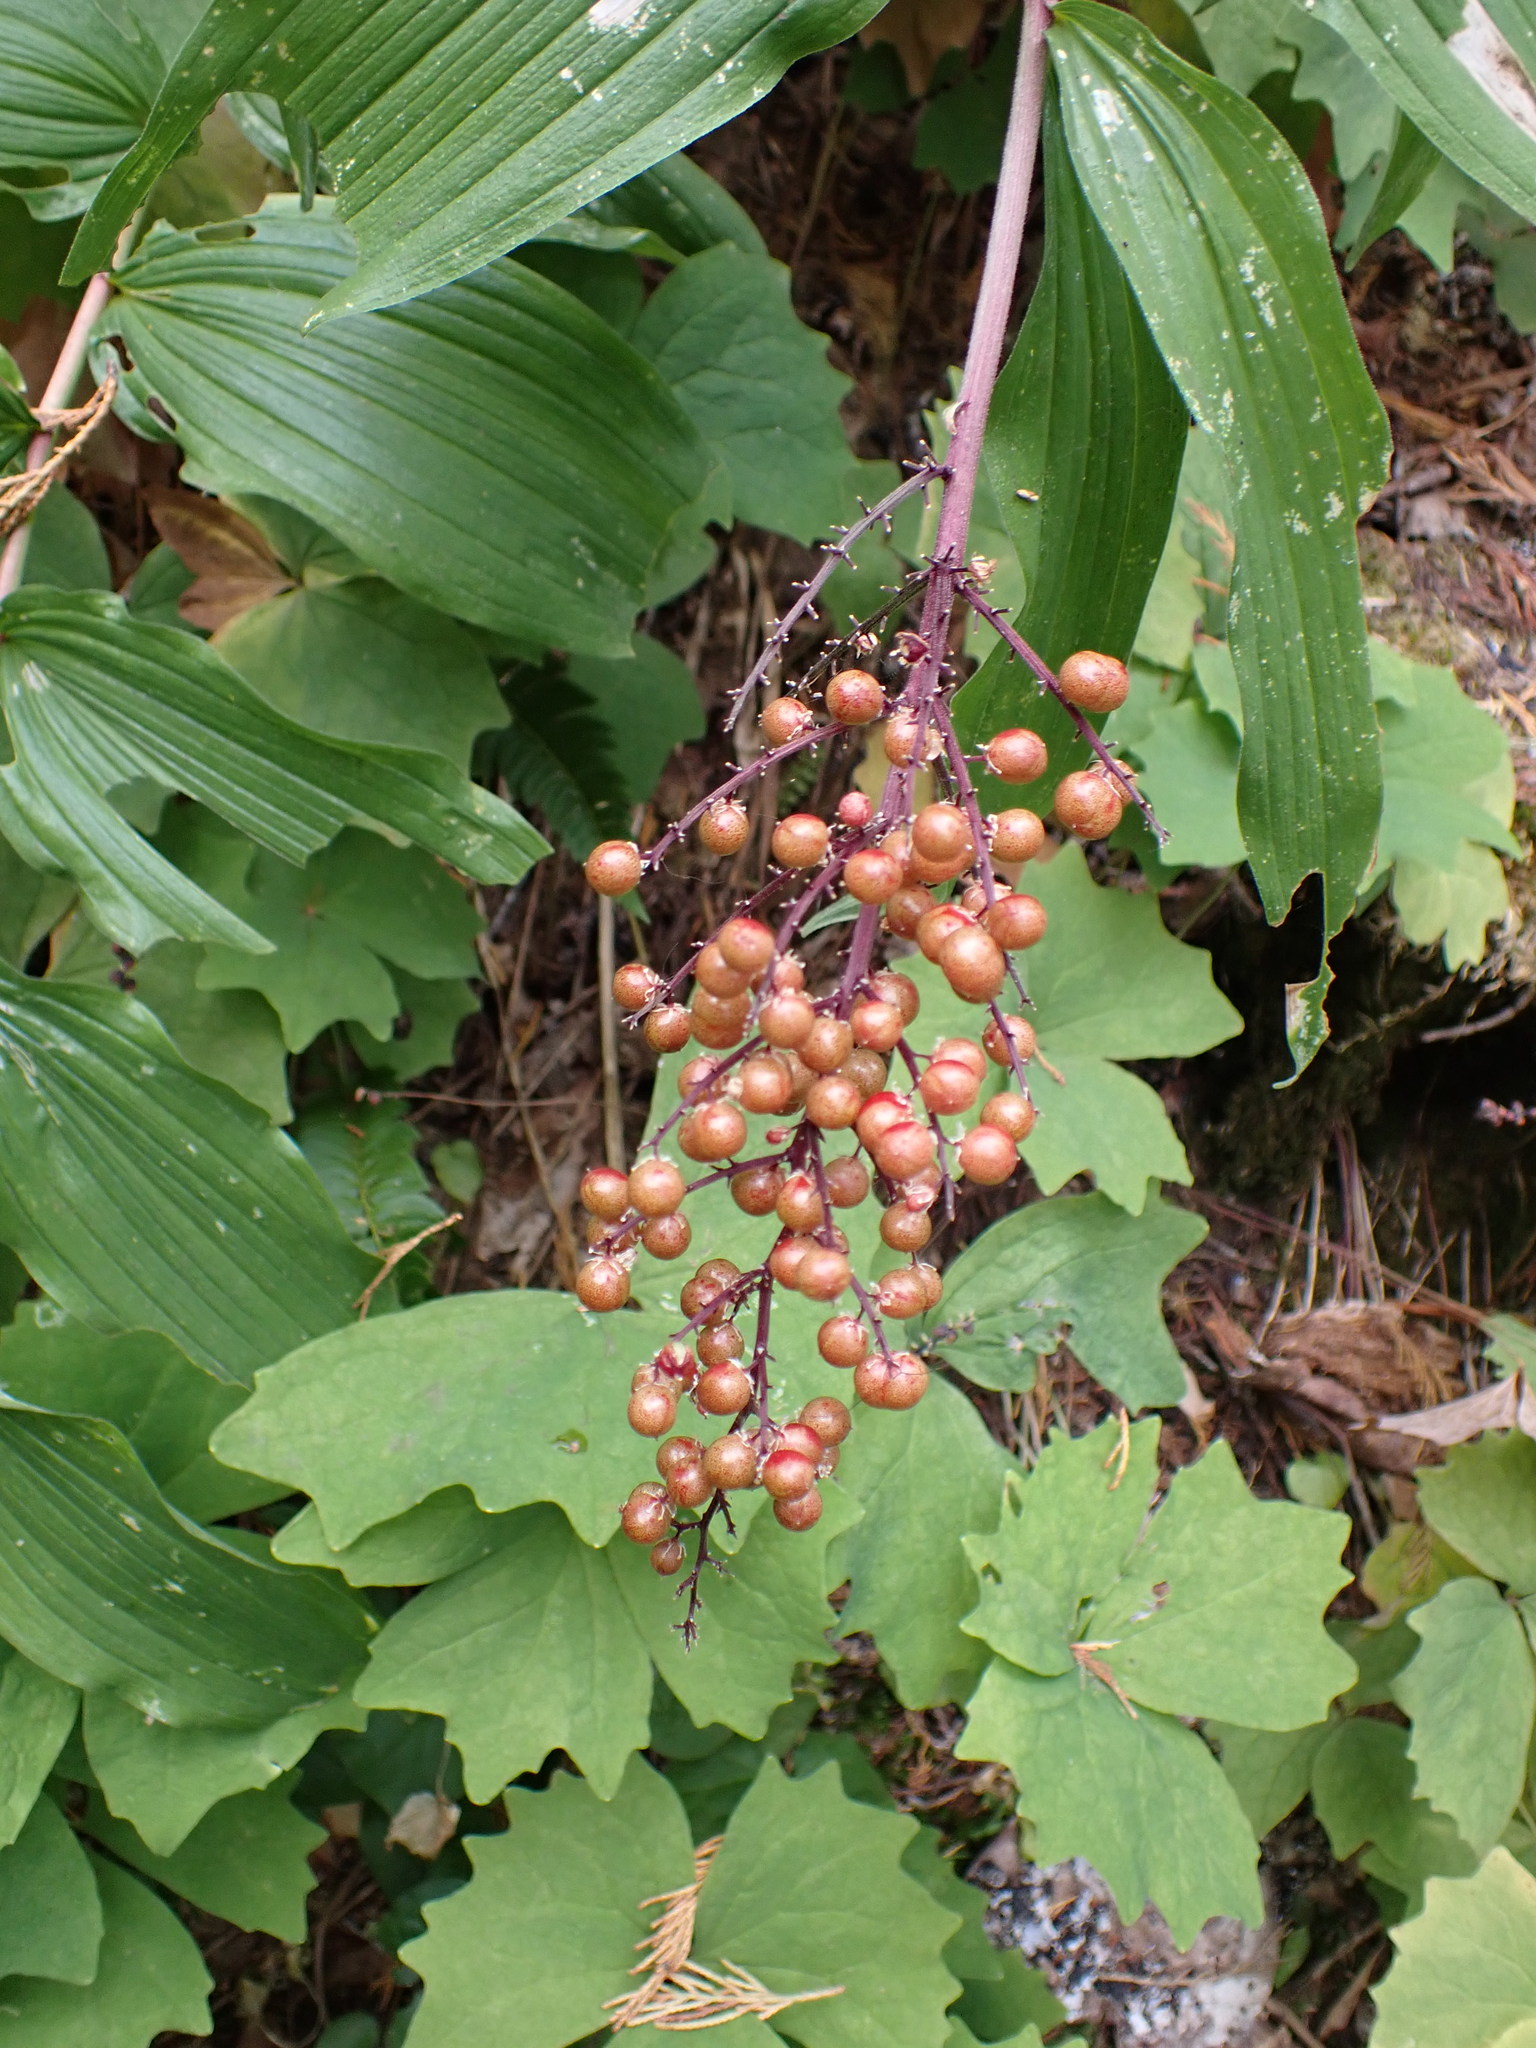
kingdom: Plantae
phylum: Tracheophyta
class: Liliopsida
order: Asparagales
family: Asparagaceae
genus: Maianthemum
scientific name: Maianthemum racemosum
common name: False spikenard
